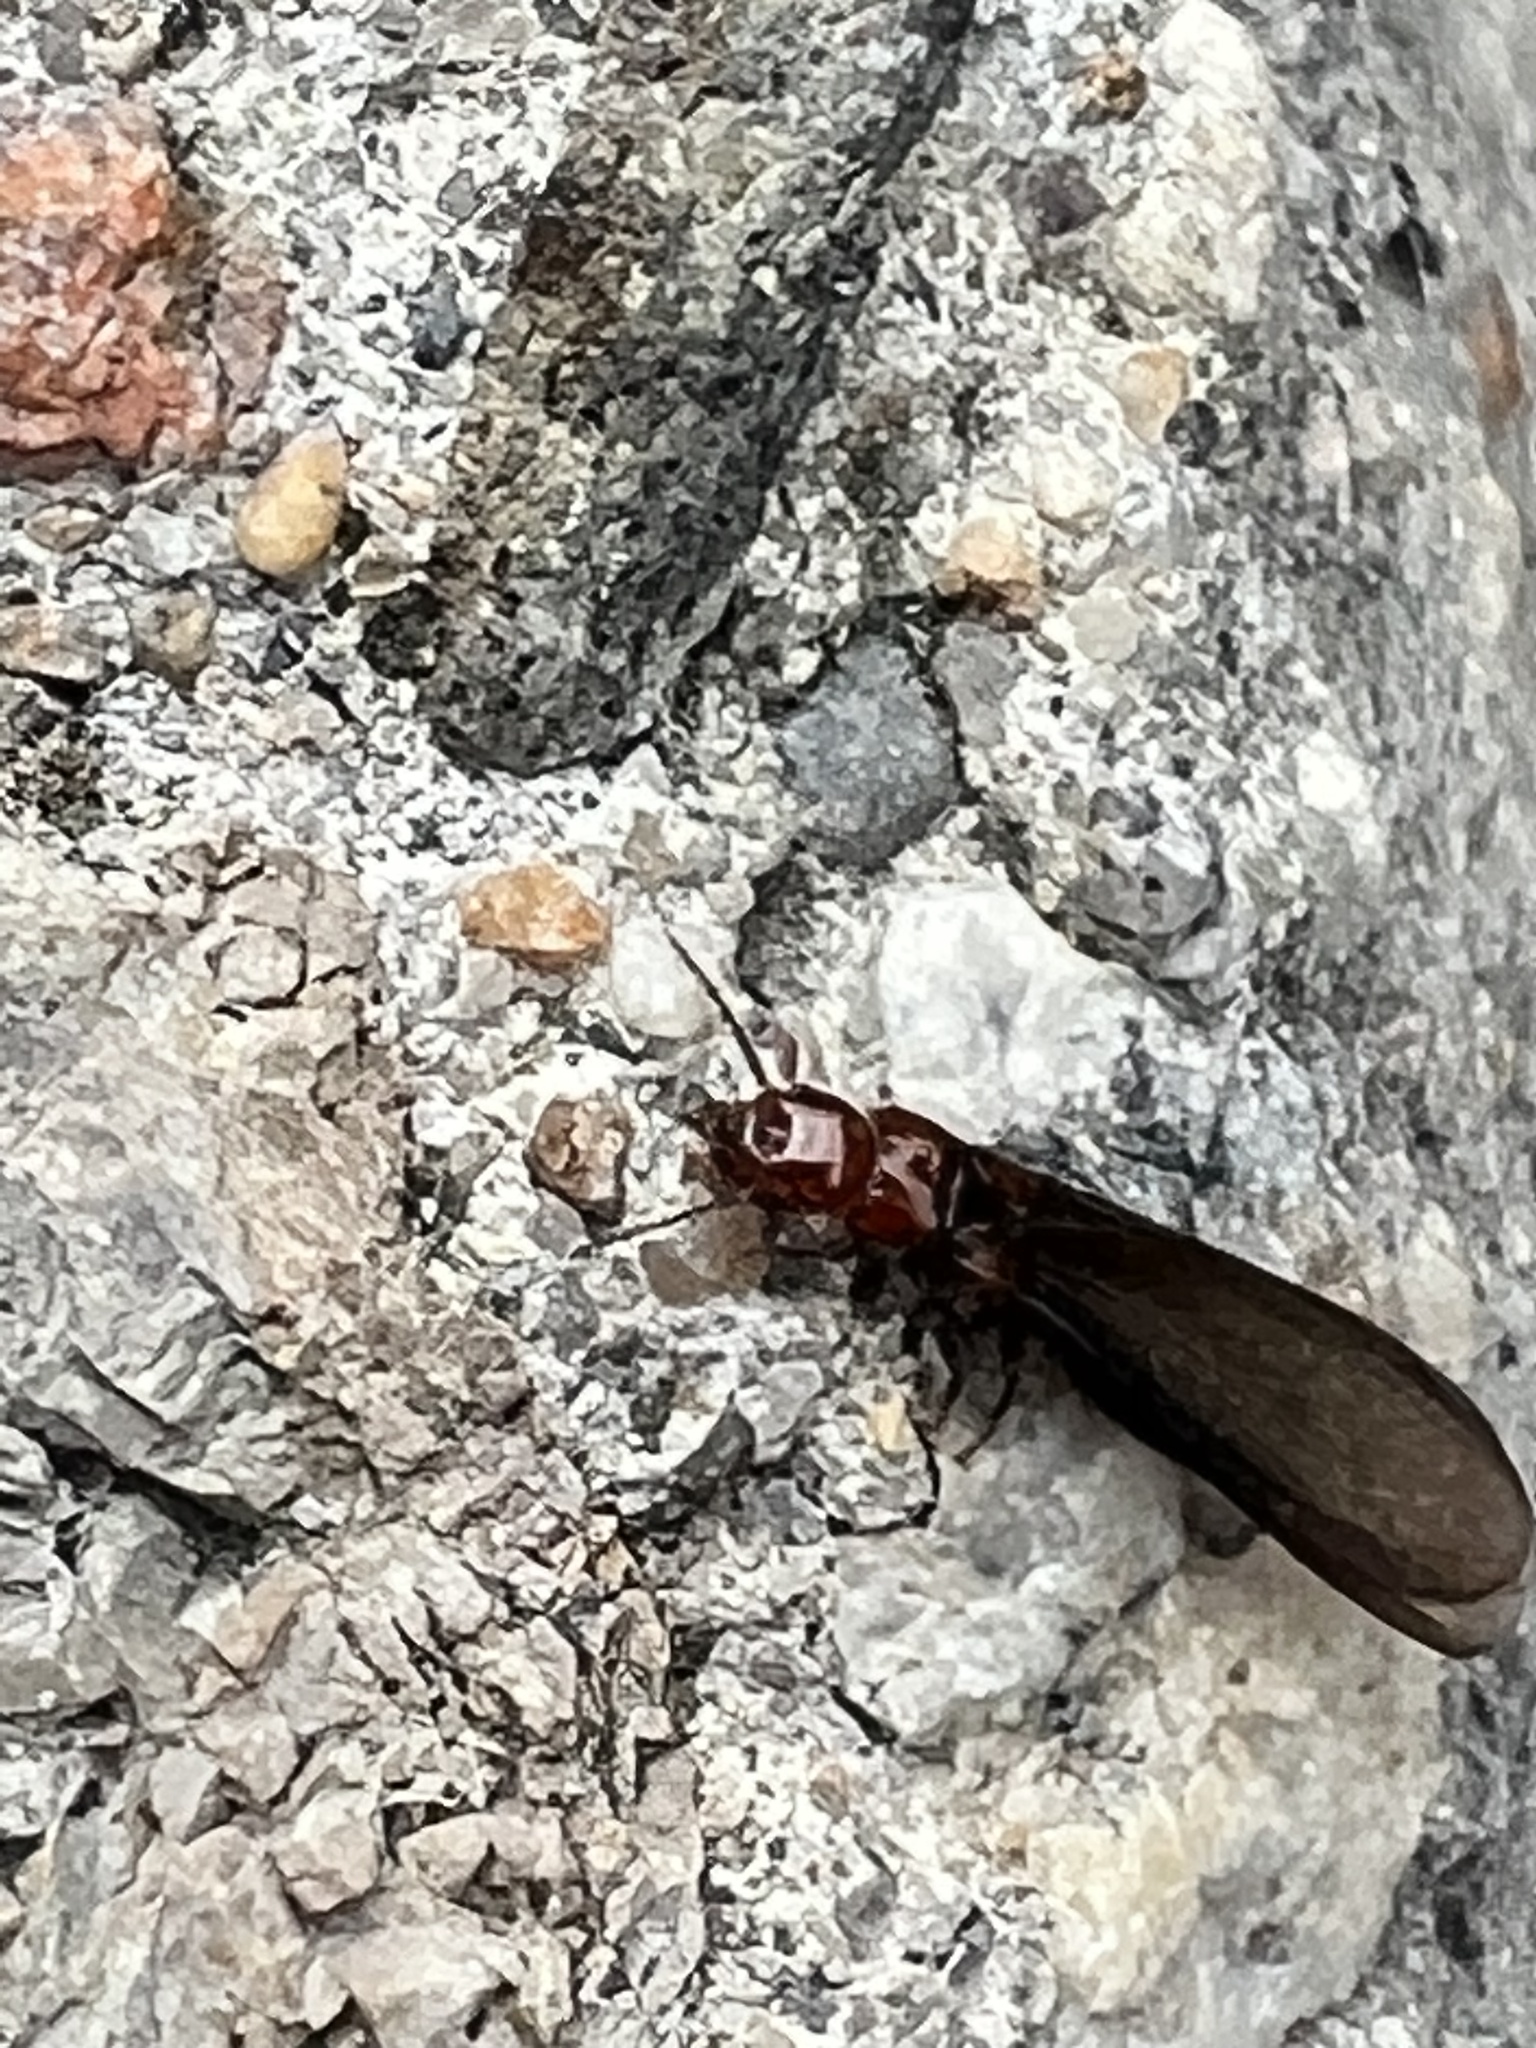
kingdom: Animalia
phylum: Arthropoda
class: Insecta
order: Blattodea
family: Kalotermitidae
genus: Incisitermes
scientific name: Incisitermes minor
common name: Termite
